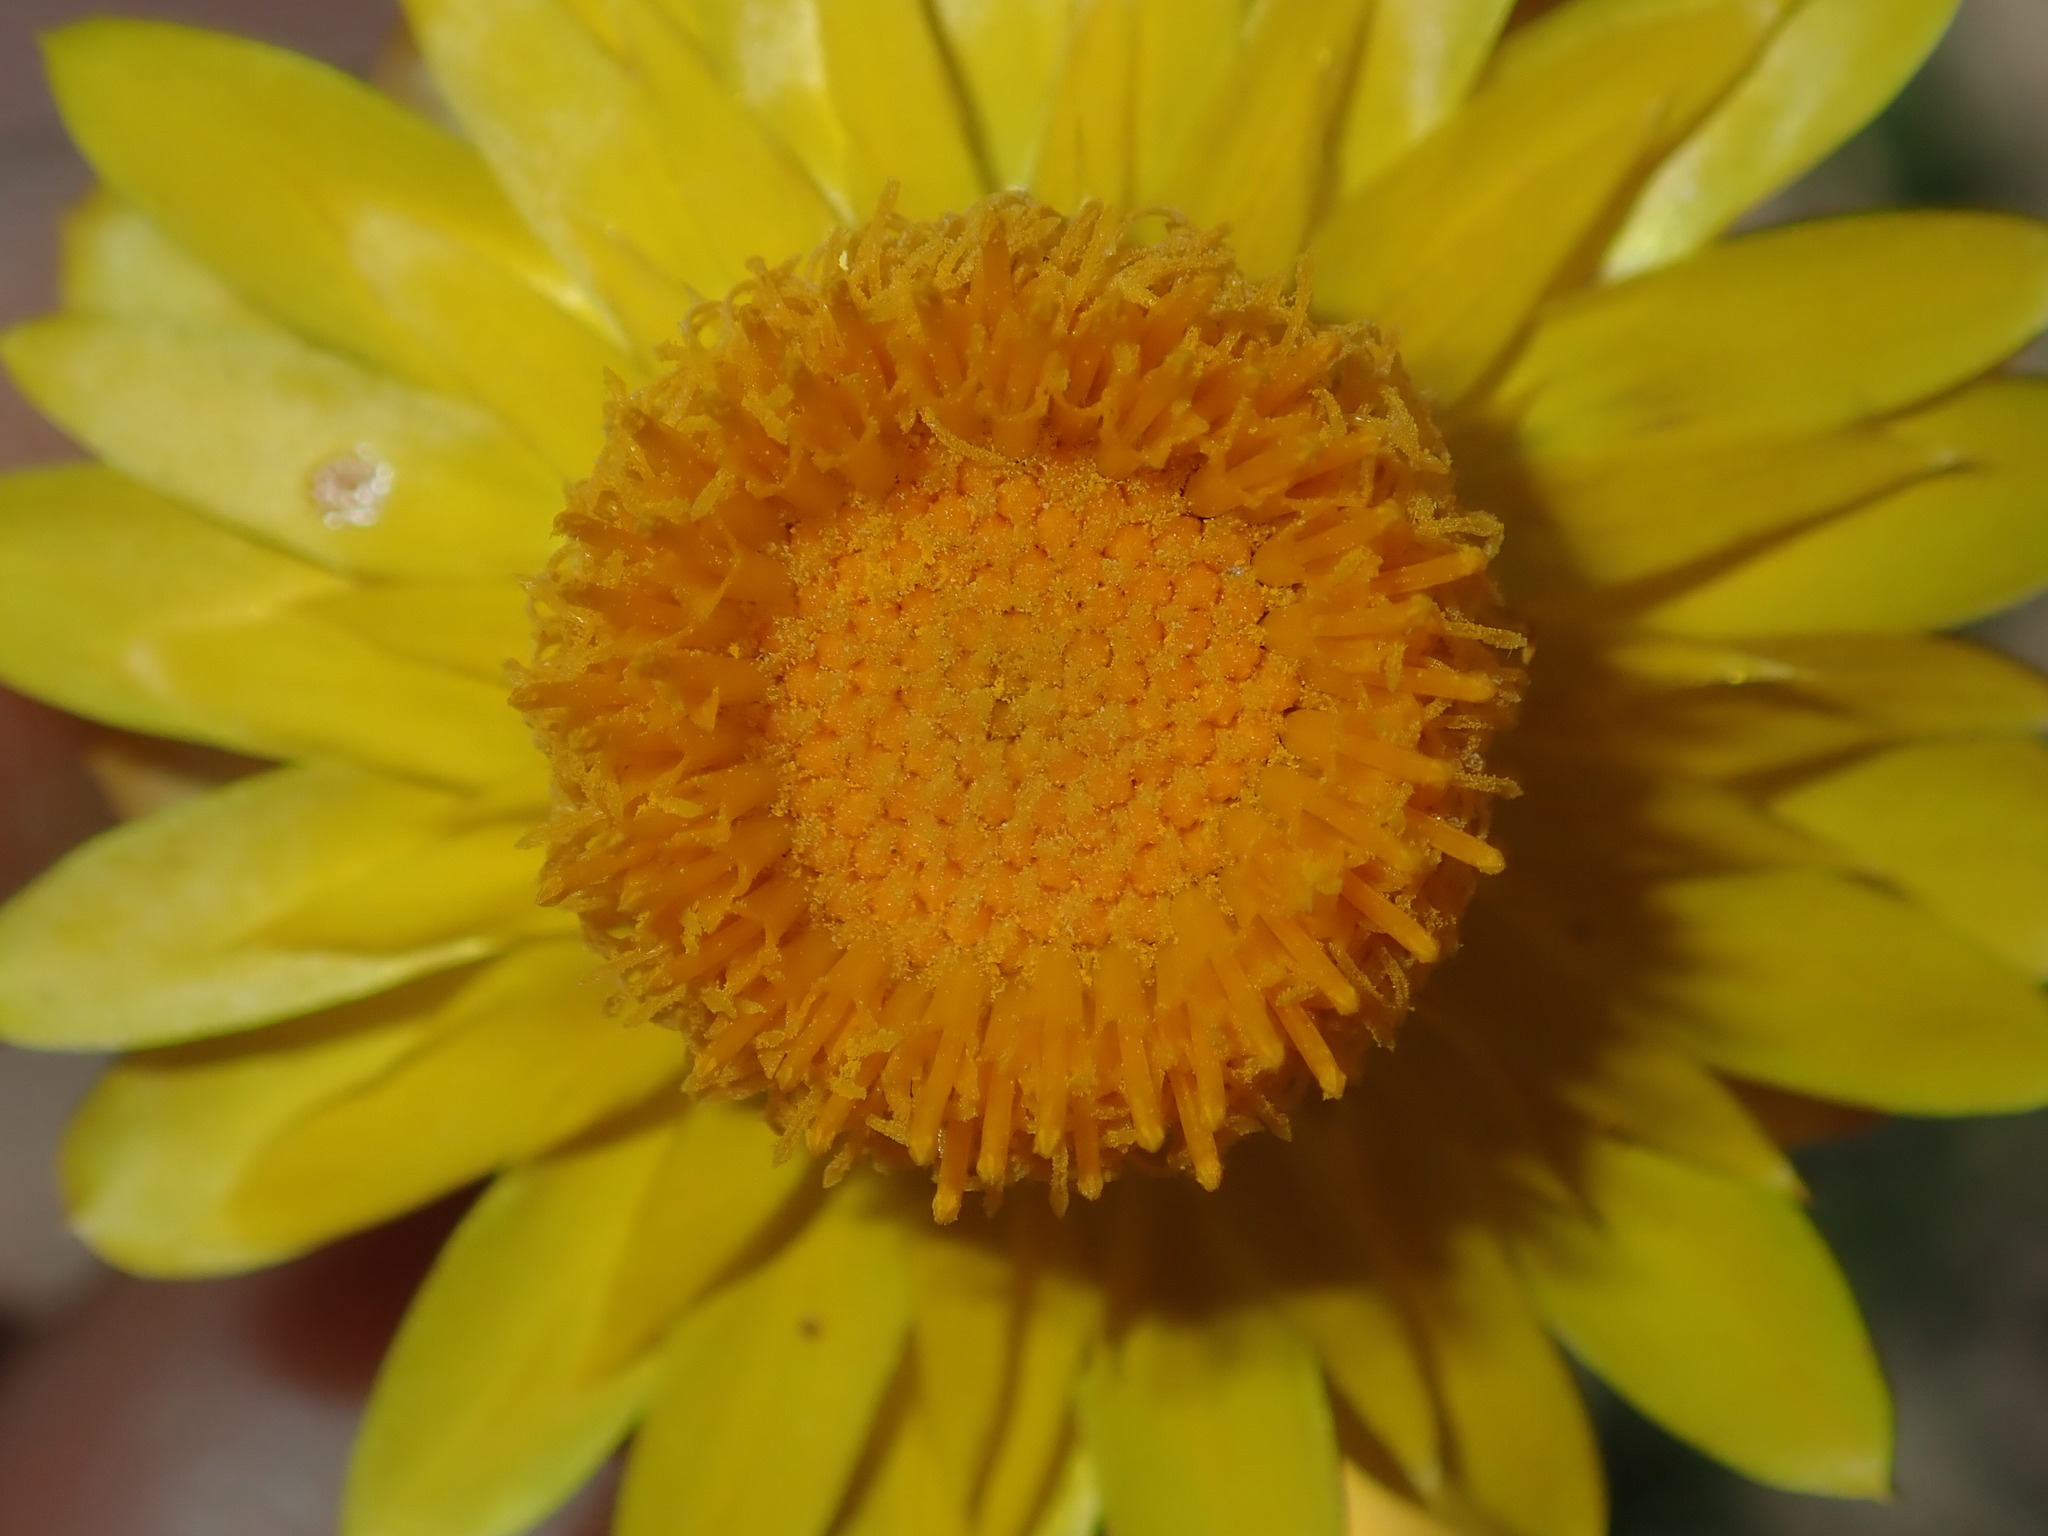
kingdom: Plantae
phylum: Tracheophyta
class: Magnoliopsida
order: Asterales
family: Asteraceae
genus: Xerochrysum
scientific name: Xerochrysum viscosum
